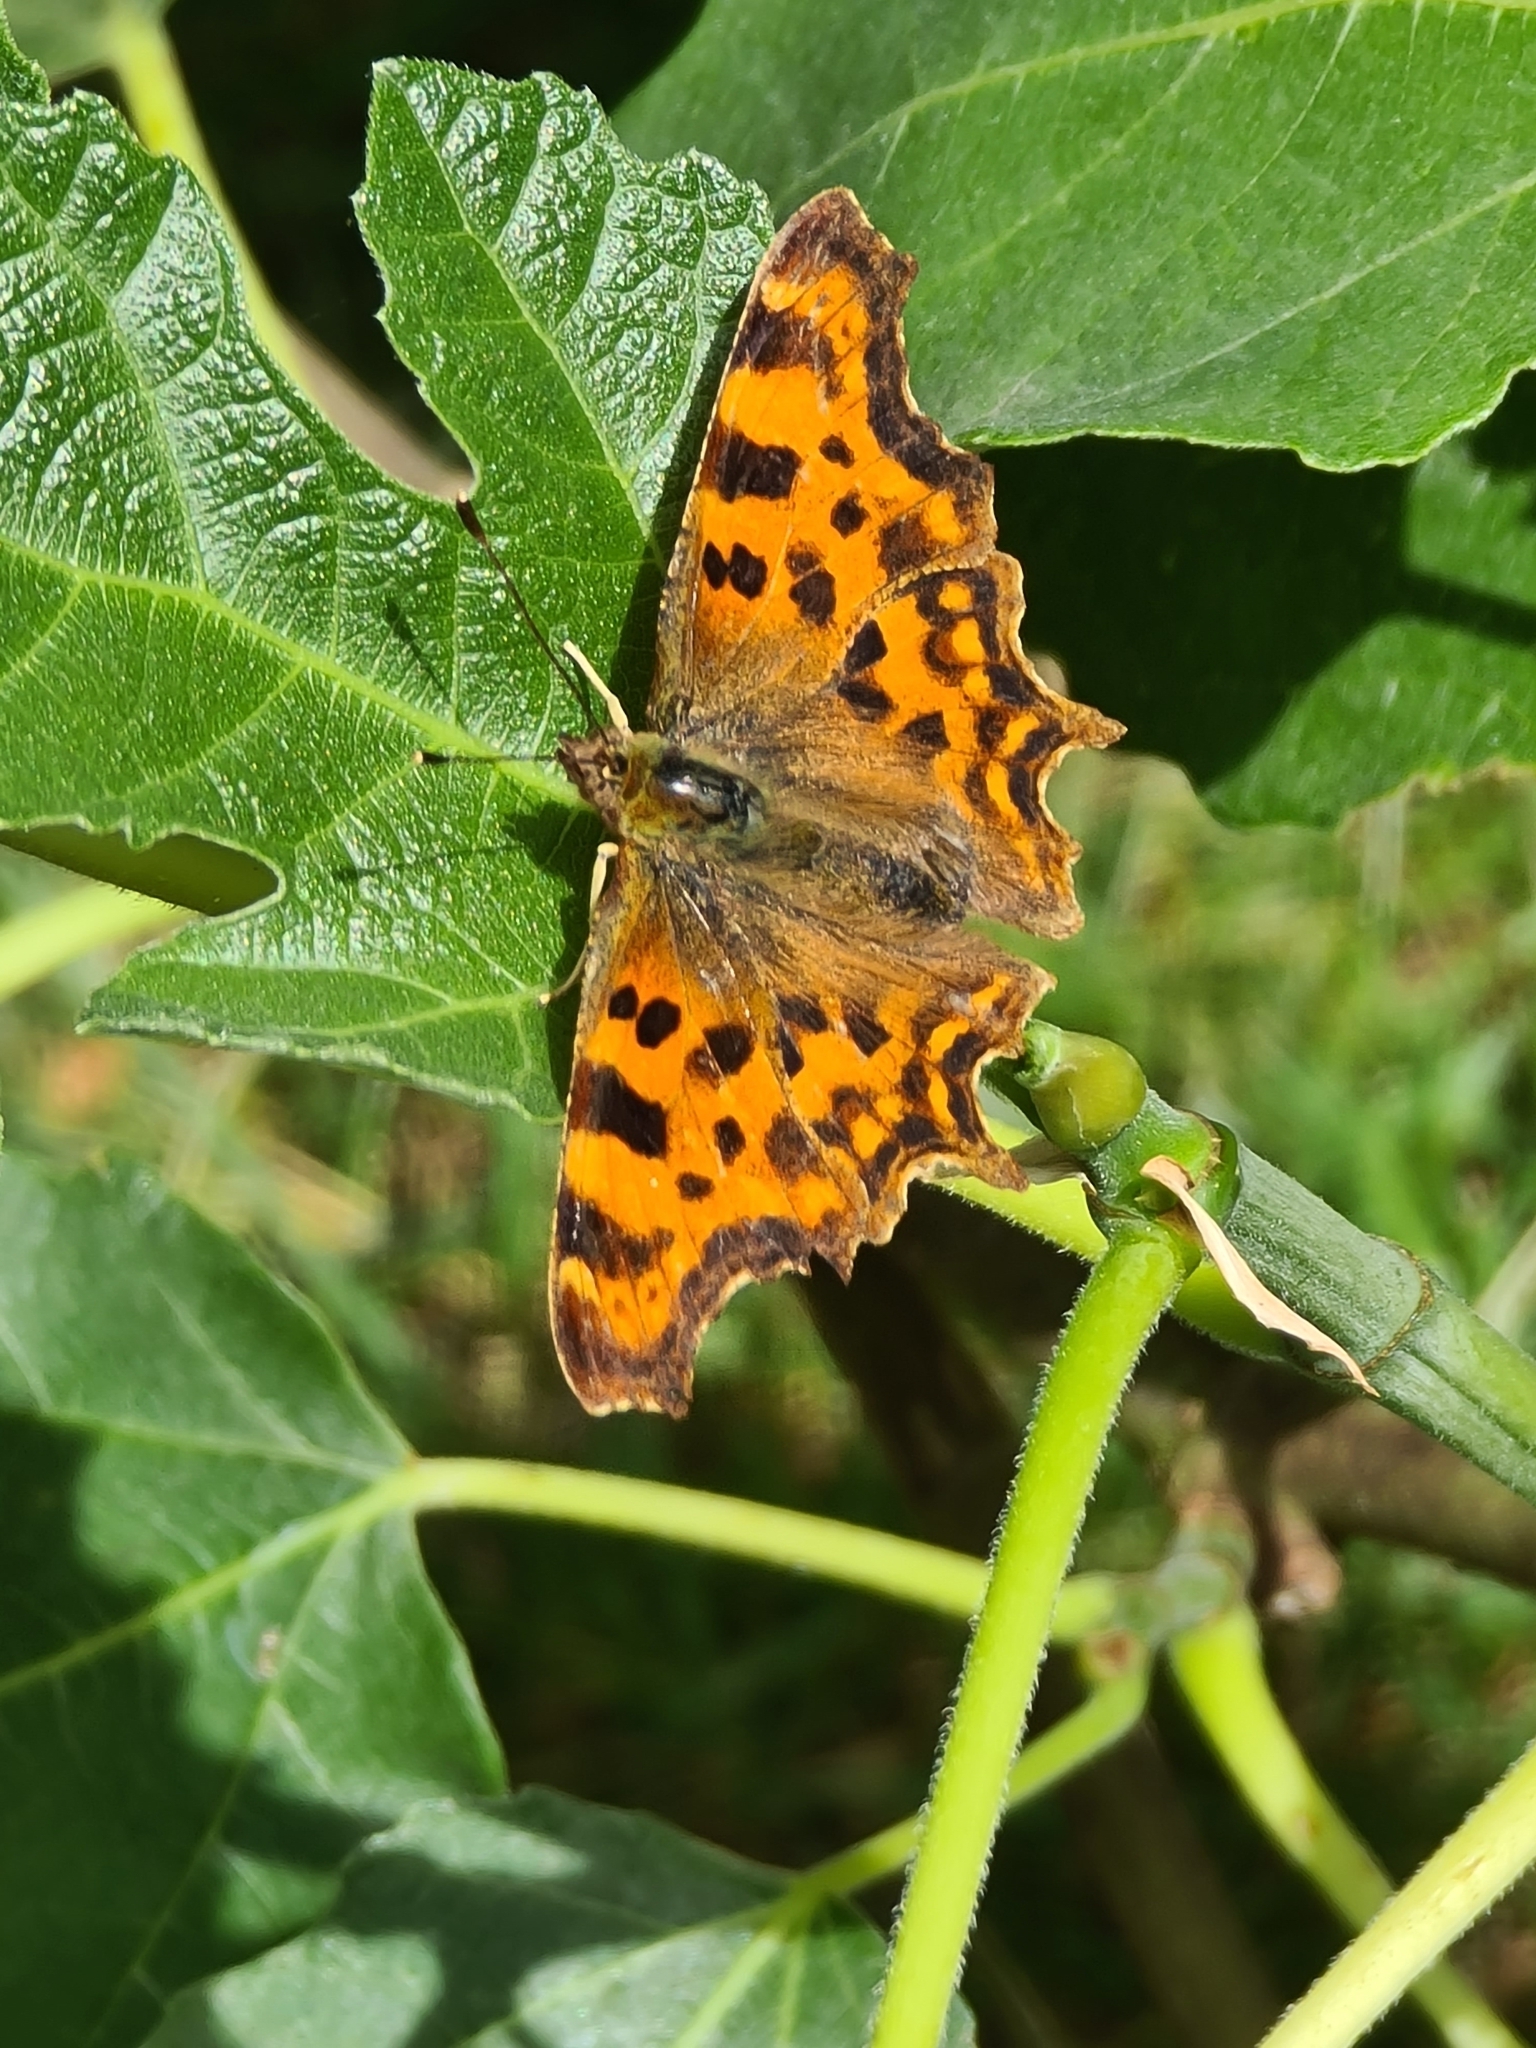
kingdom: Animalia
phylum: Arthropoda
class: Insecta
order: Lepidoptera
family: Nymphalidae
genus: Polygonia
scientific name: Polygonia c-album
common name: Comma
